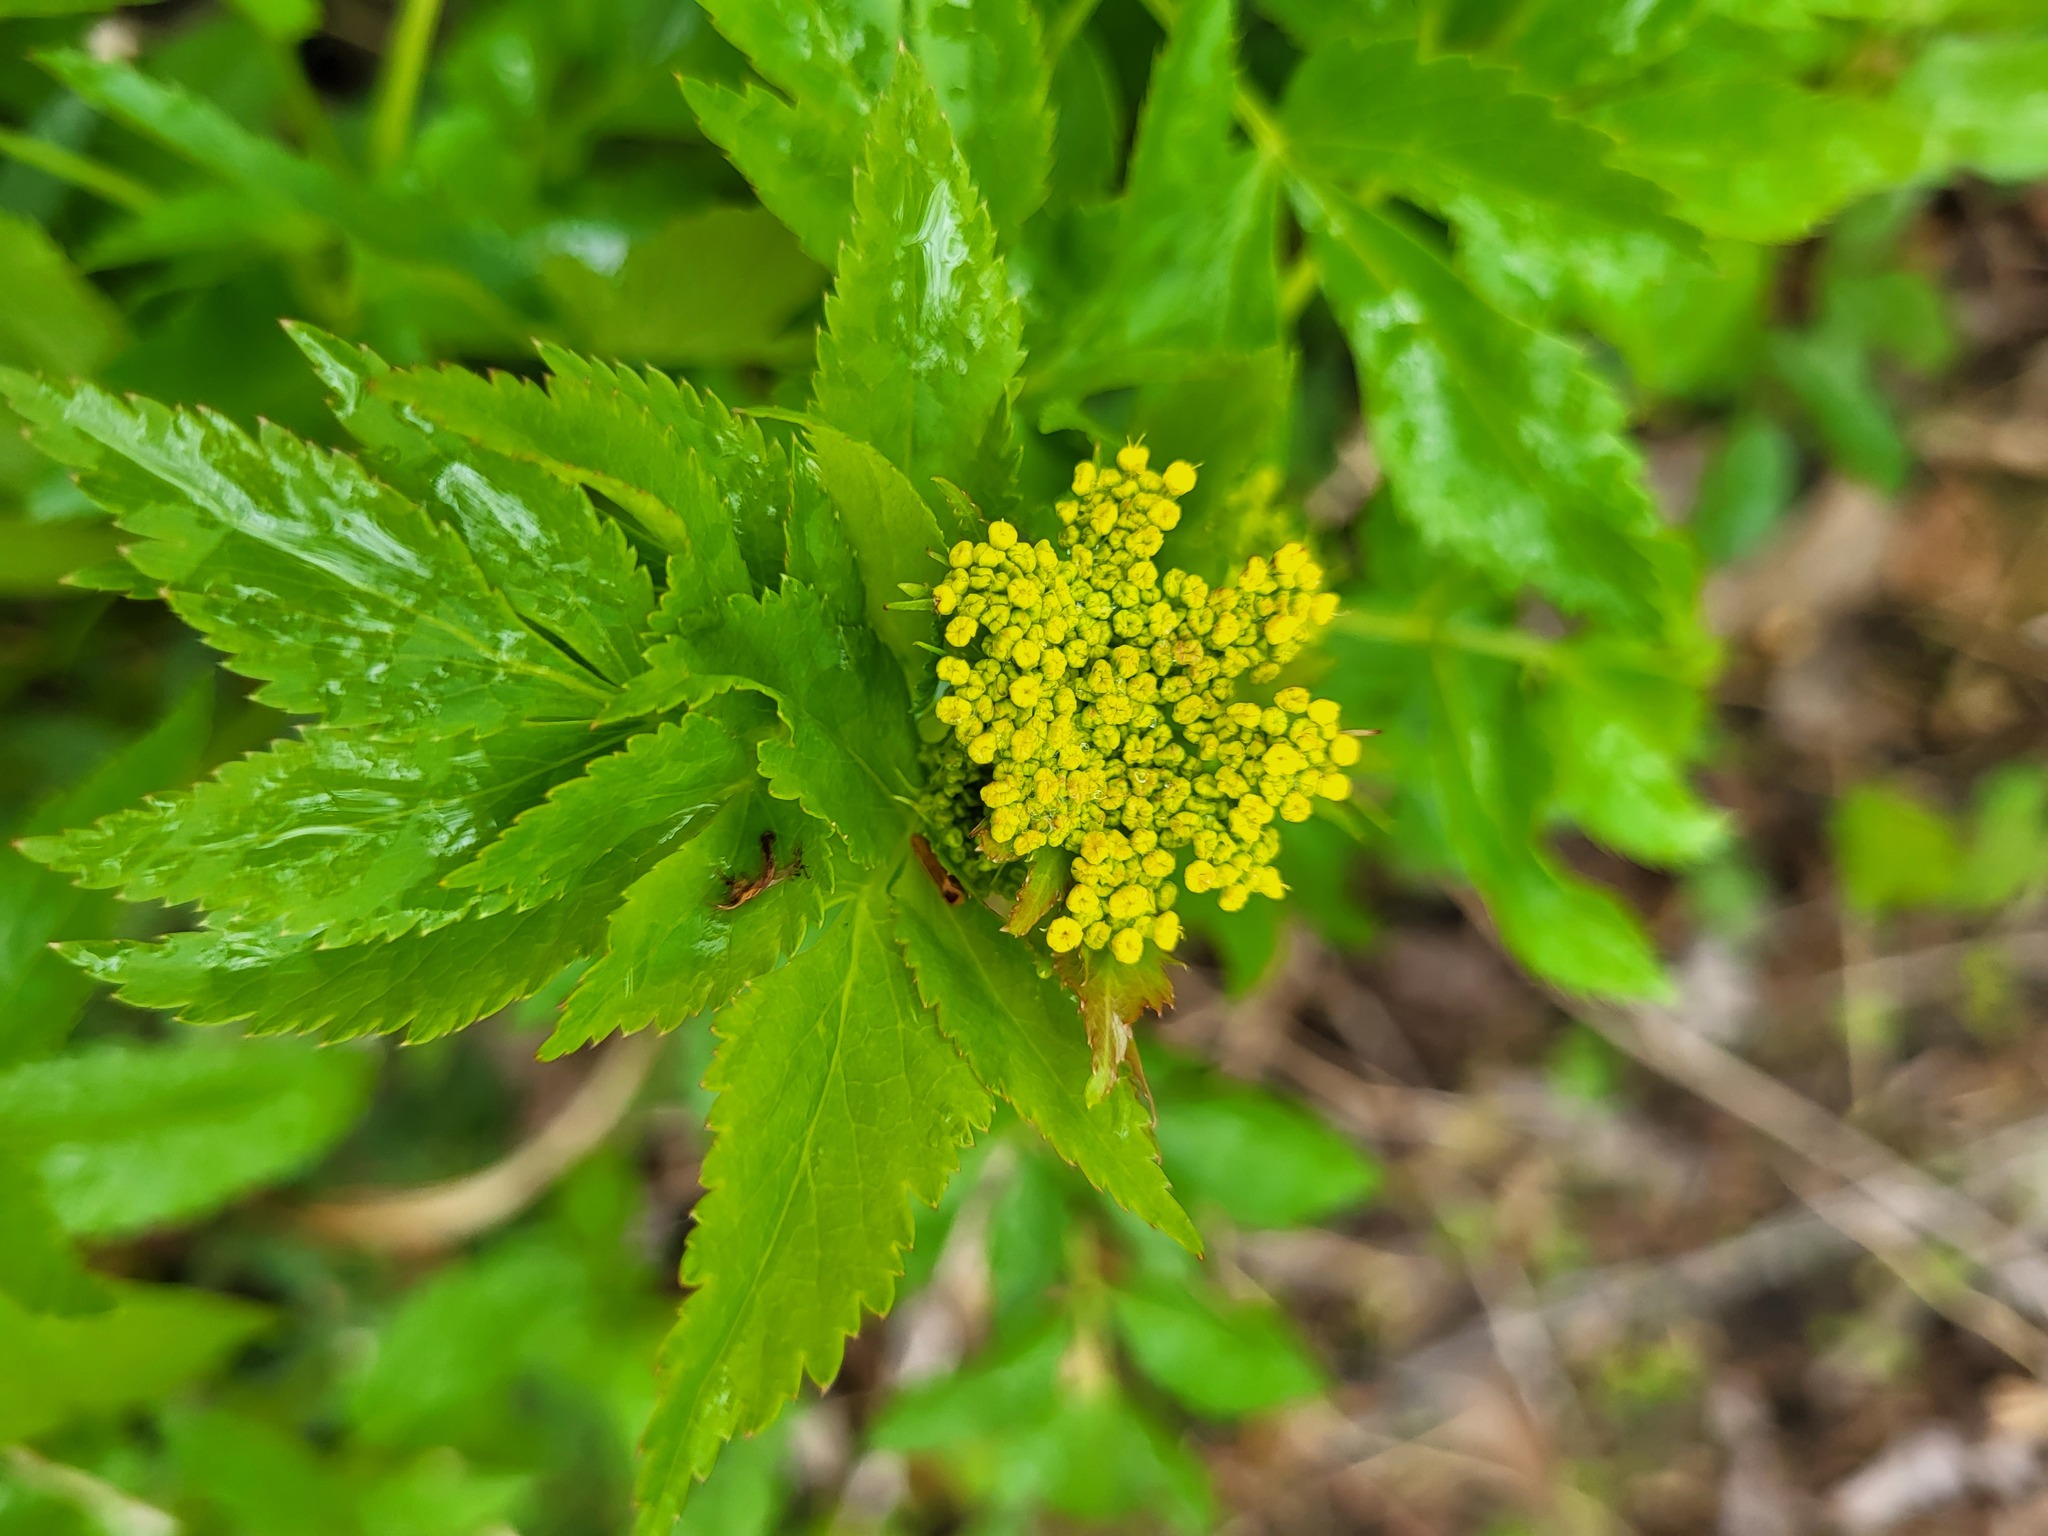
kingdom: Plantae
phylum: Tracheophyta
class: Magnoliopsida
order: Apiales
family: Apiaceae
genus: Zizia
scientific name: Zizia aurea
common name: Golden alexanders
